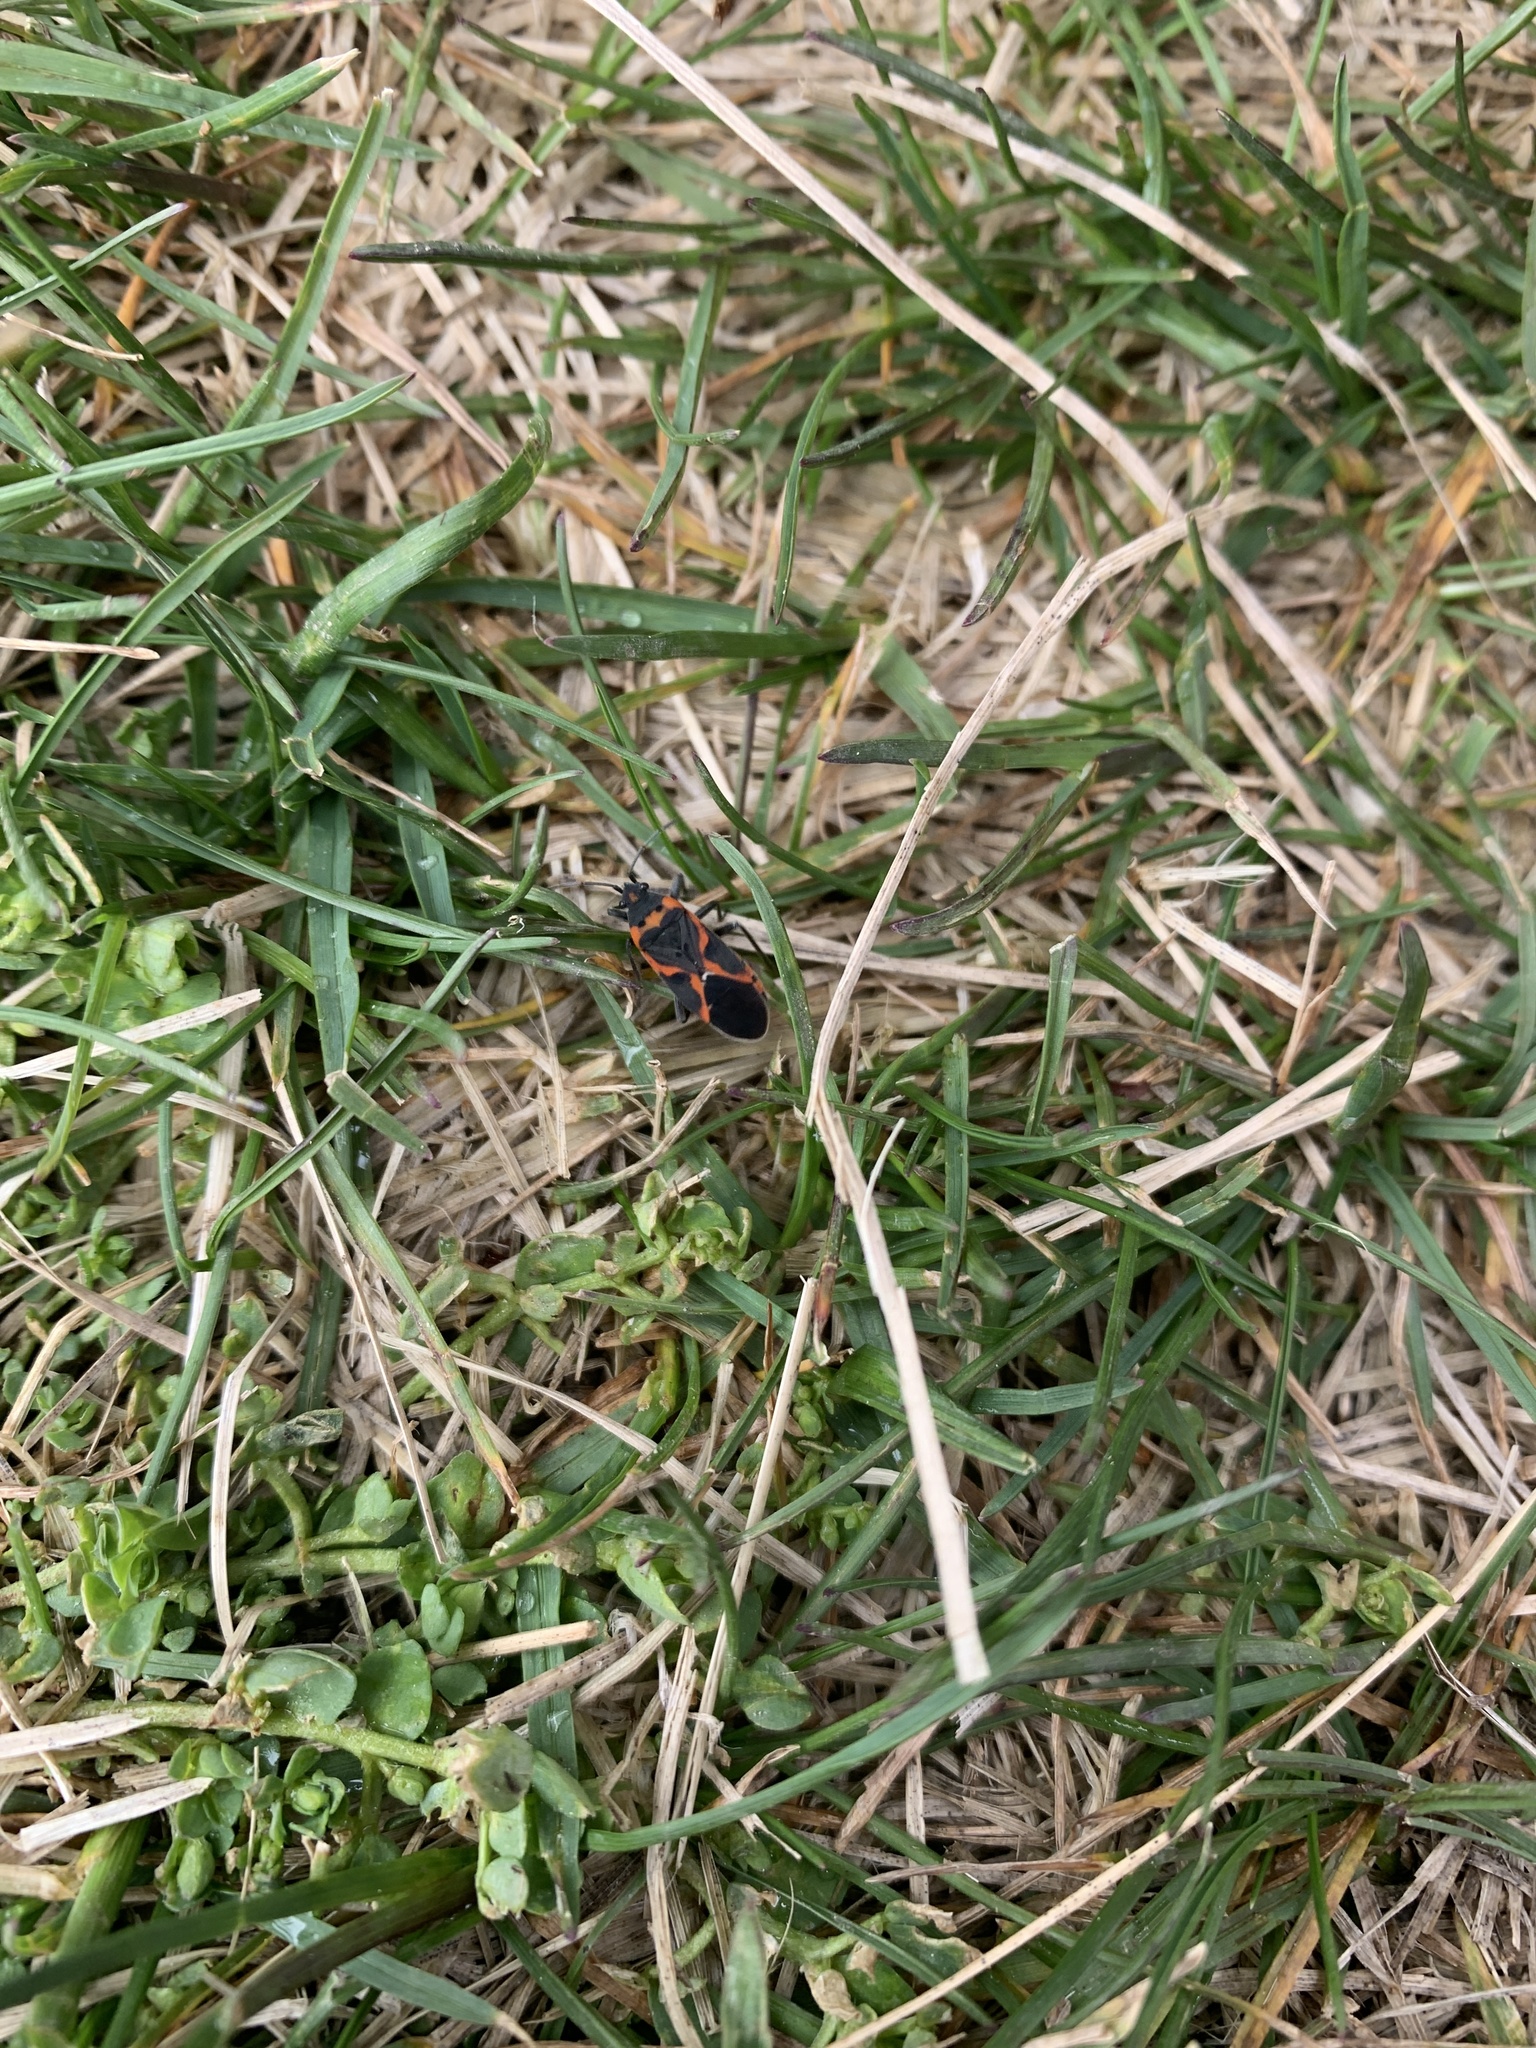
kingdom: Animalia
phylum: Arthropoda
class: Insecta
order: Hemiptera
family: Lygaeidae
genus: Lygaeus
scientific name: Lygaeus kalmii
